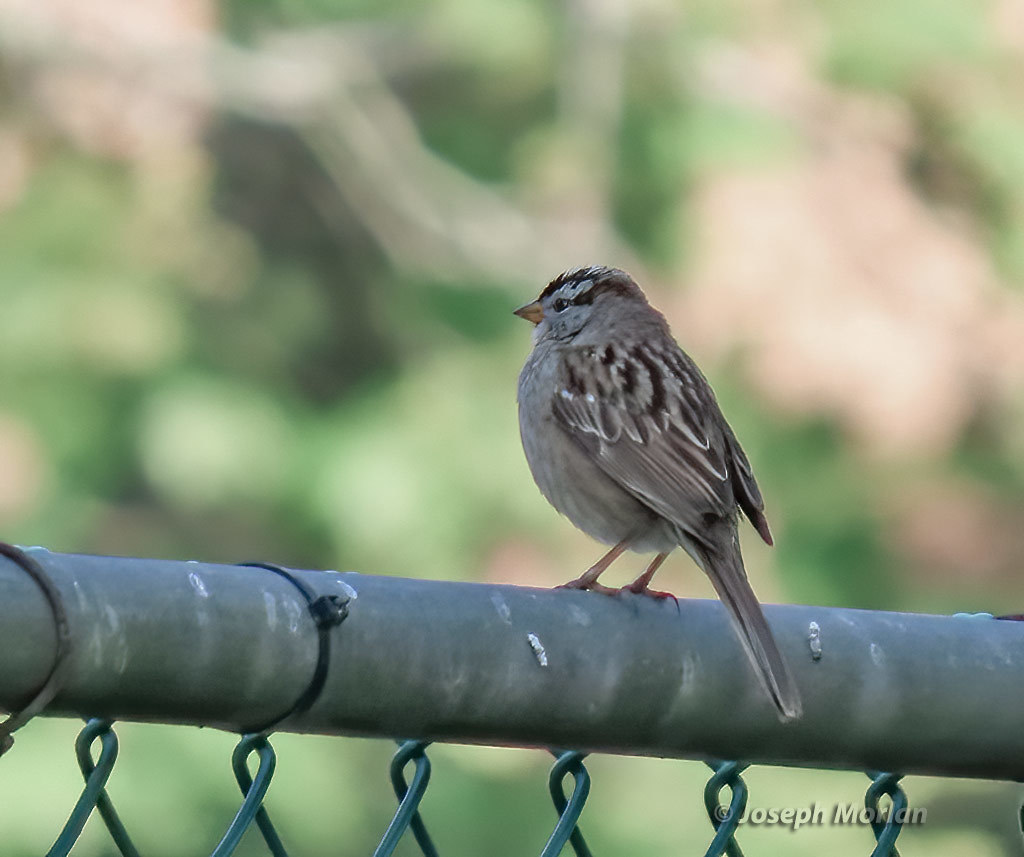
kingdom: Animalia
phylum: Chordata
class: Aves
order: Passeriformes
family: Passerellidae
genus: Zonotrichia
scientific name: Zonotrichia leucophrys
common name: White-crowned sparrow
